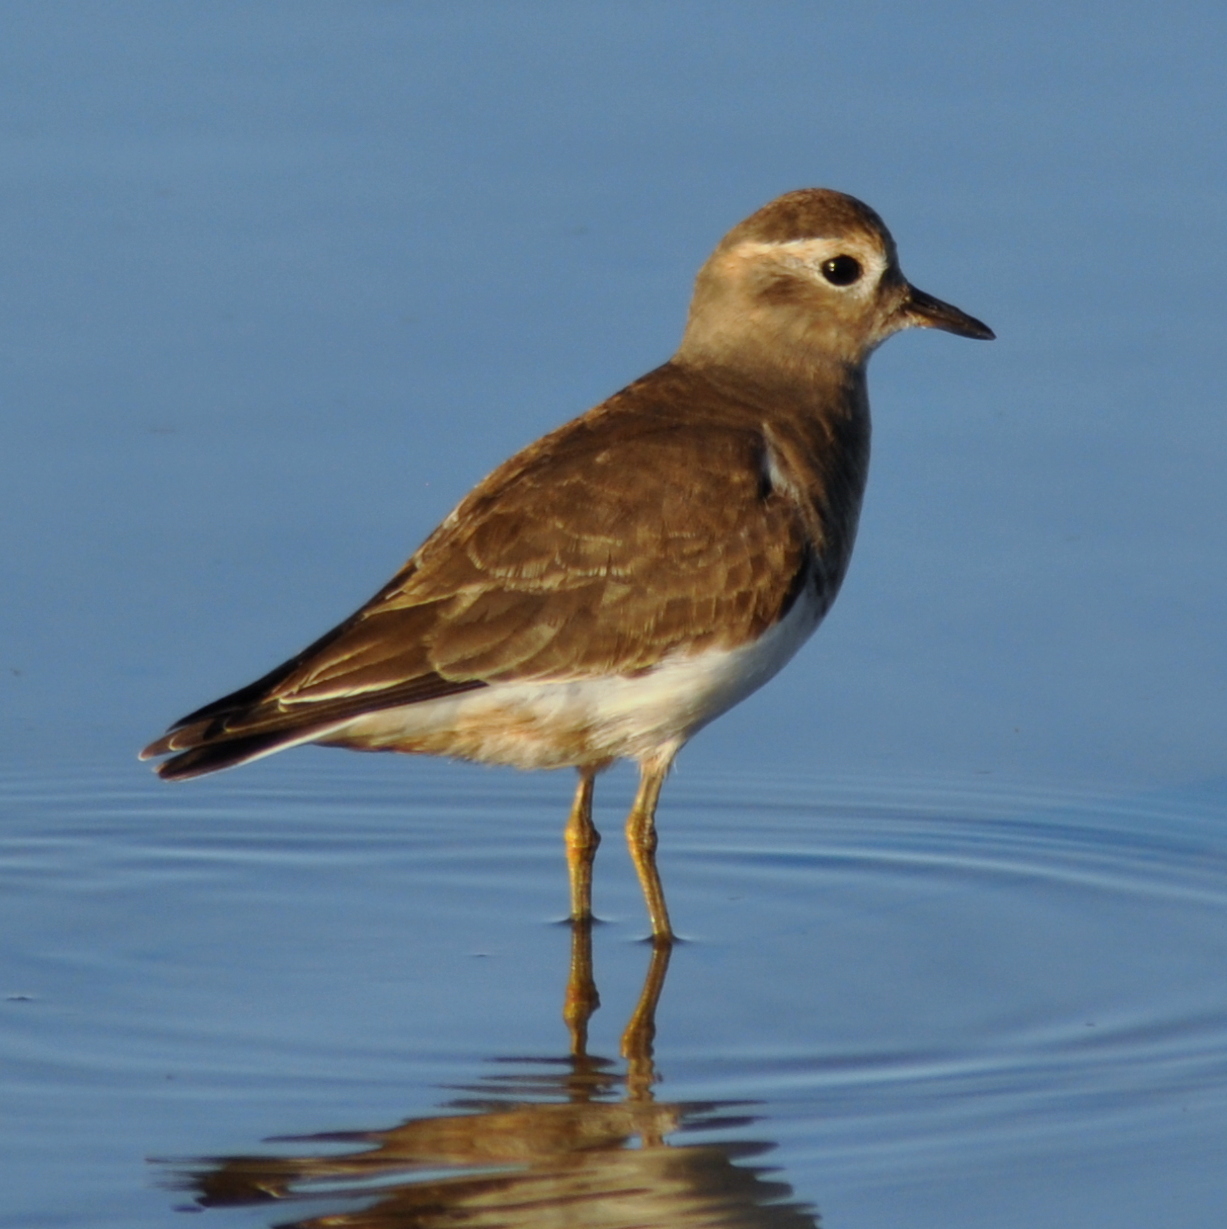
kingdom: Animalia
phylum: Chordata
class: Aves
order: Charadriiformes
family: Charadriidae
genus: Charadrius
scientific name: Charadrius modestus
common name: Rufous-chested plover
